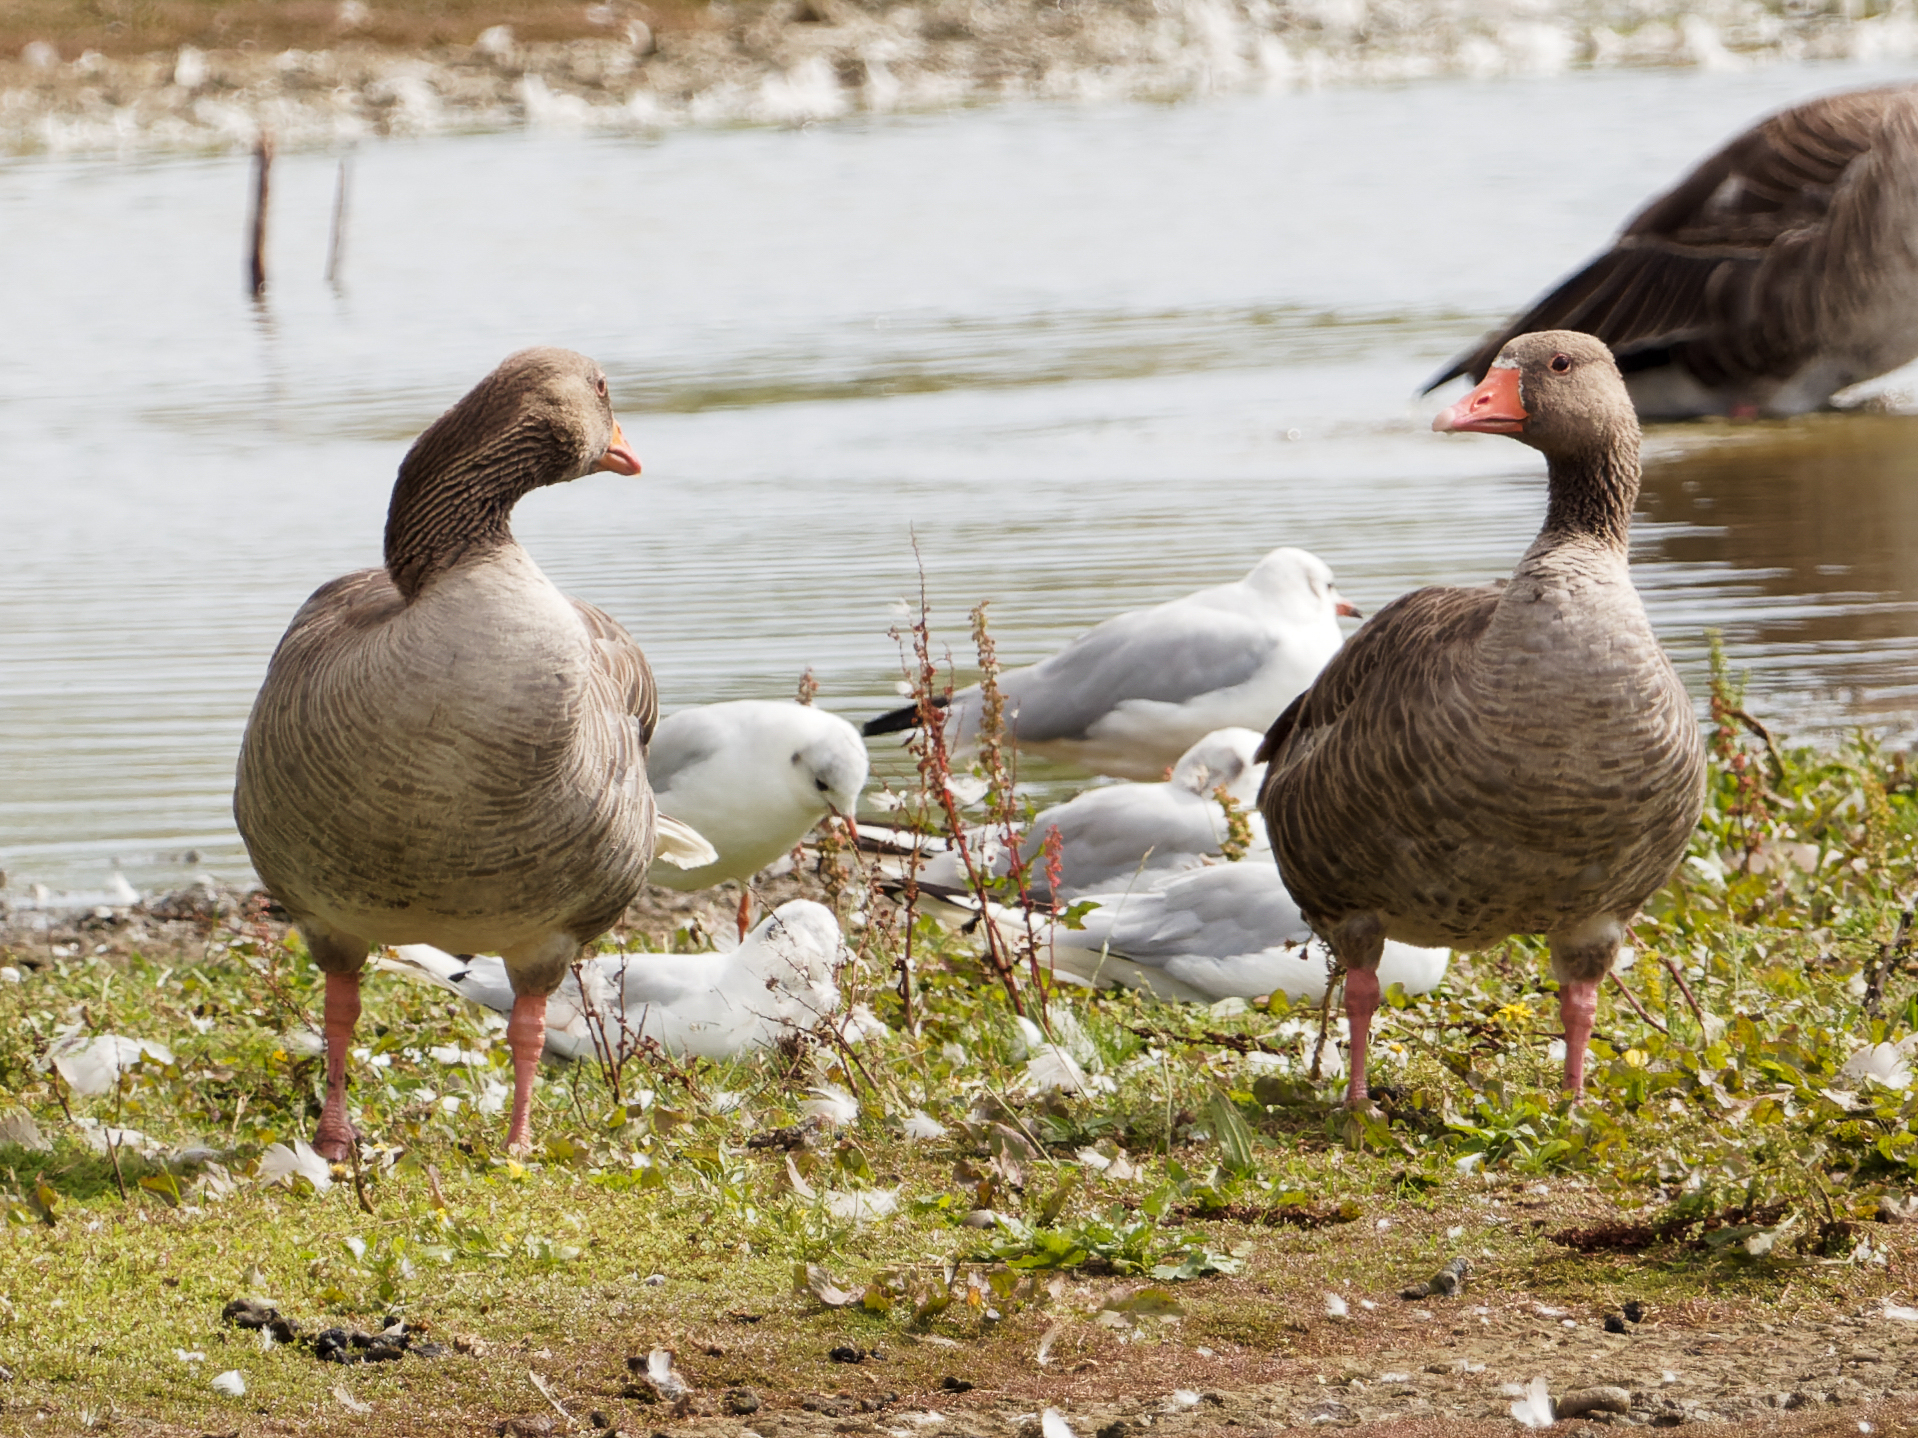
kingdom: Animalia
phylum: Chordata
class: Aves
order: Anseriformes
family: Anatidae
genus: Anser
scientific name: Anser anser
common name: Greylag goose
